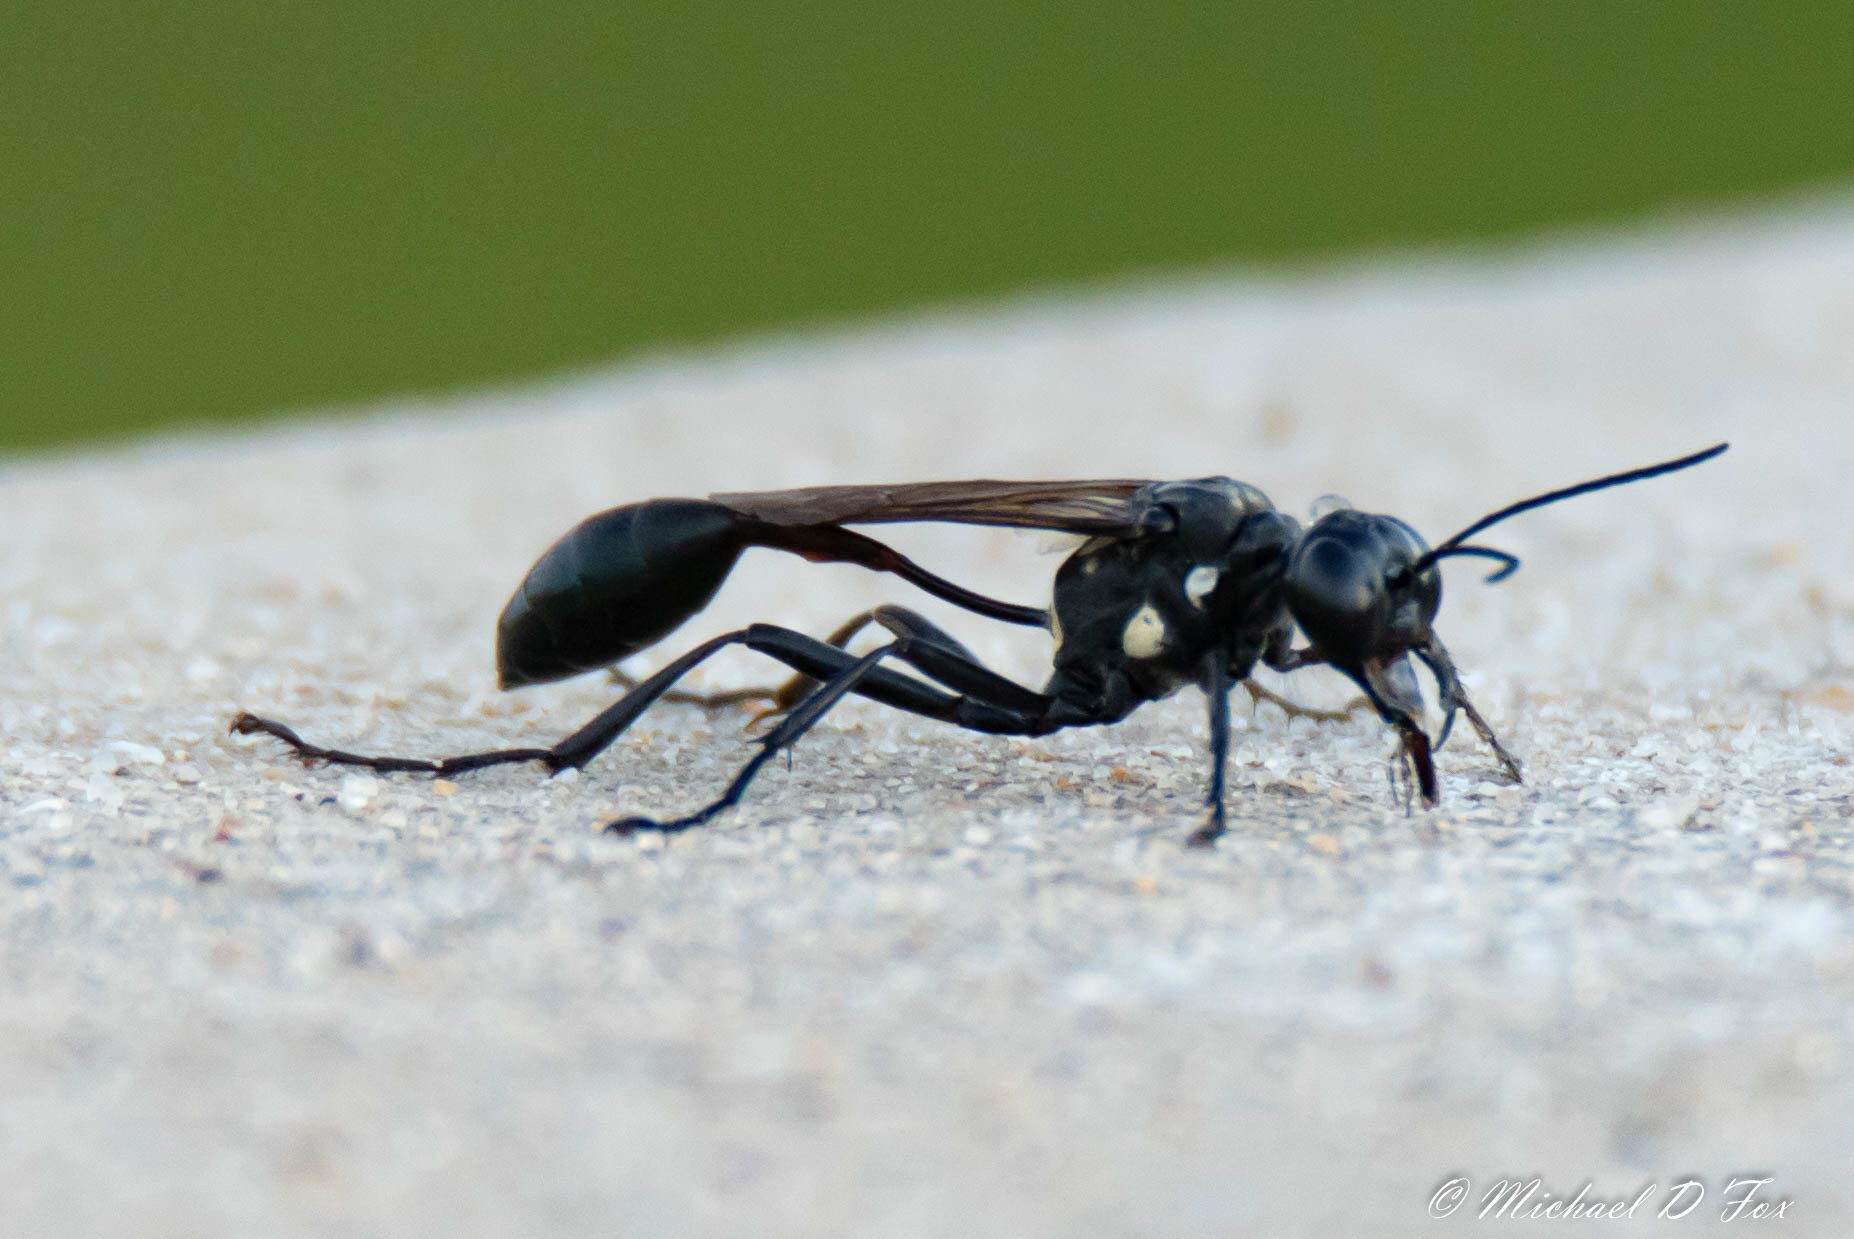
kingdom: Animalia
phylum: Arthropoda
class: Insecta
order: Hymenoptera
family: Sphecidae
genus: Eremnophila
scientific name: Eremnophila aureonotata
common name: Gold-marked thread-waisted wasp
